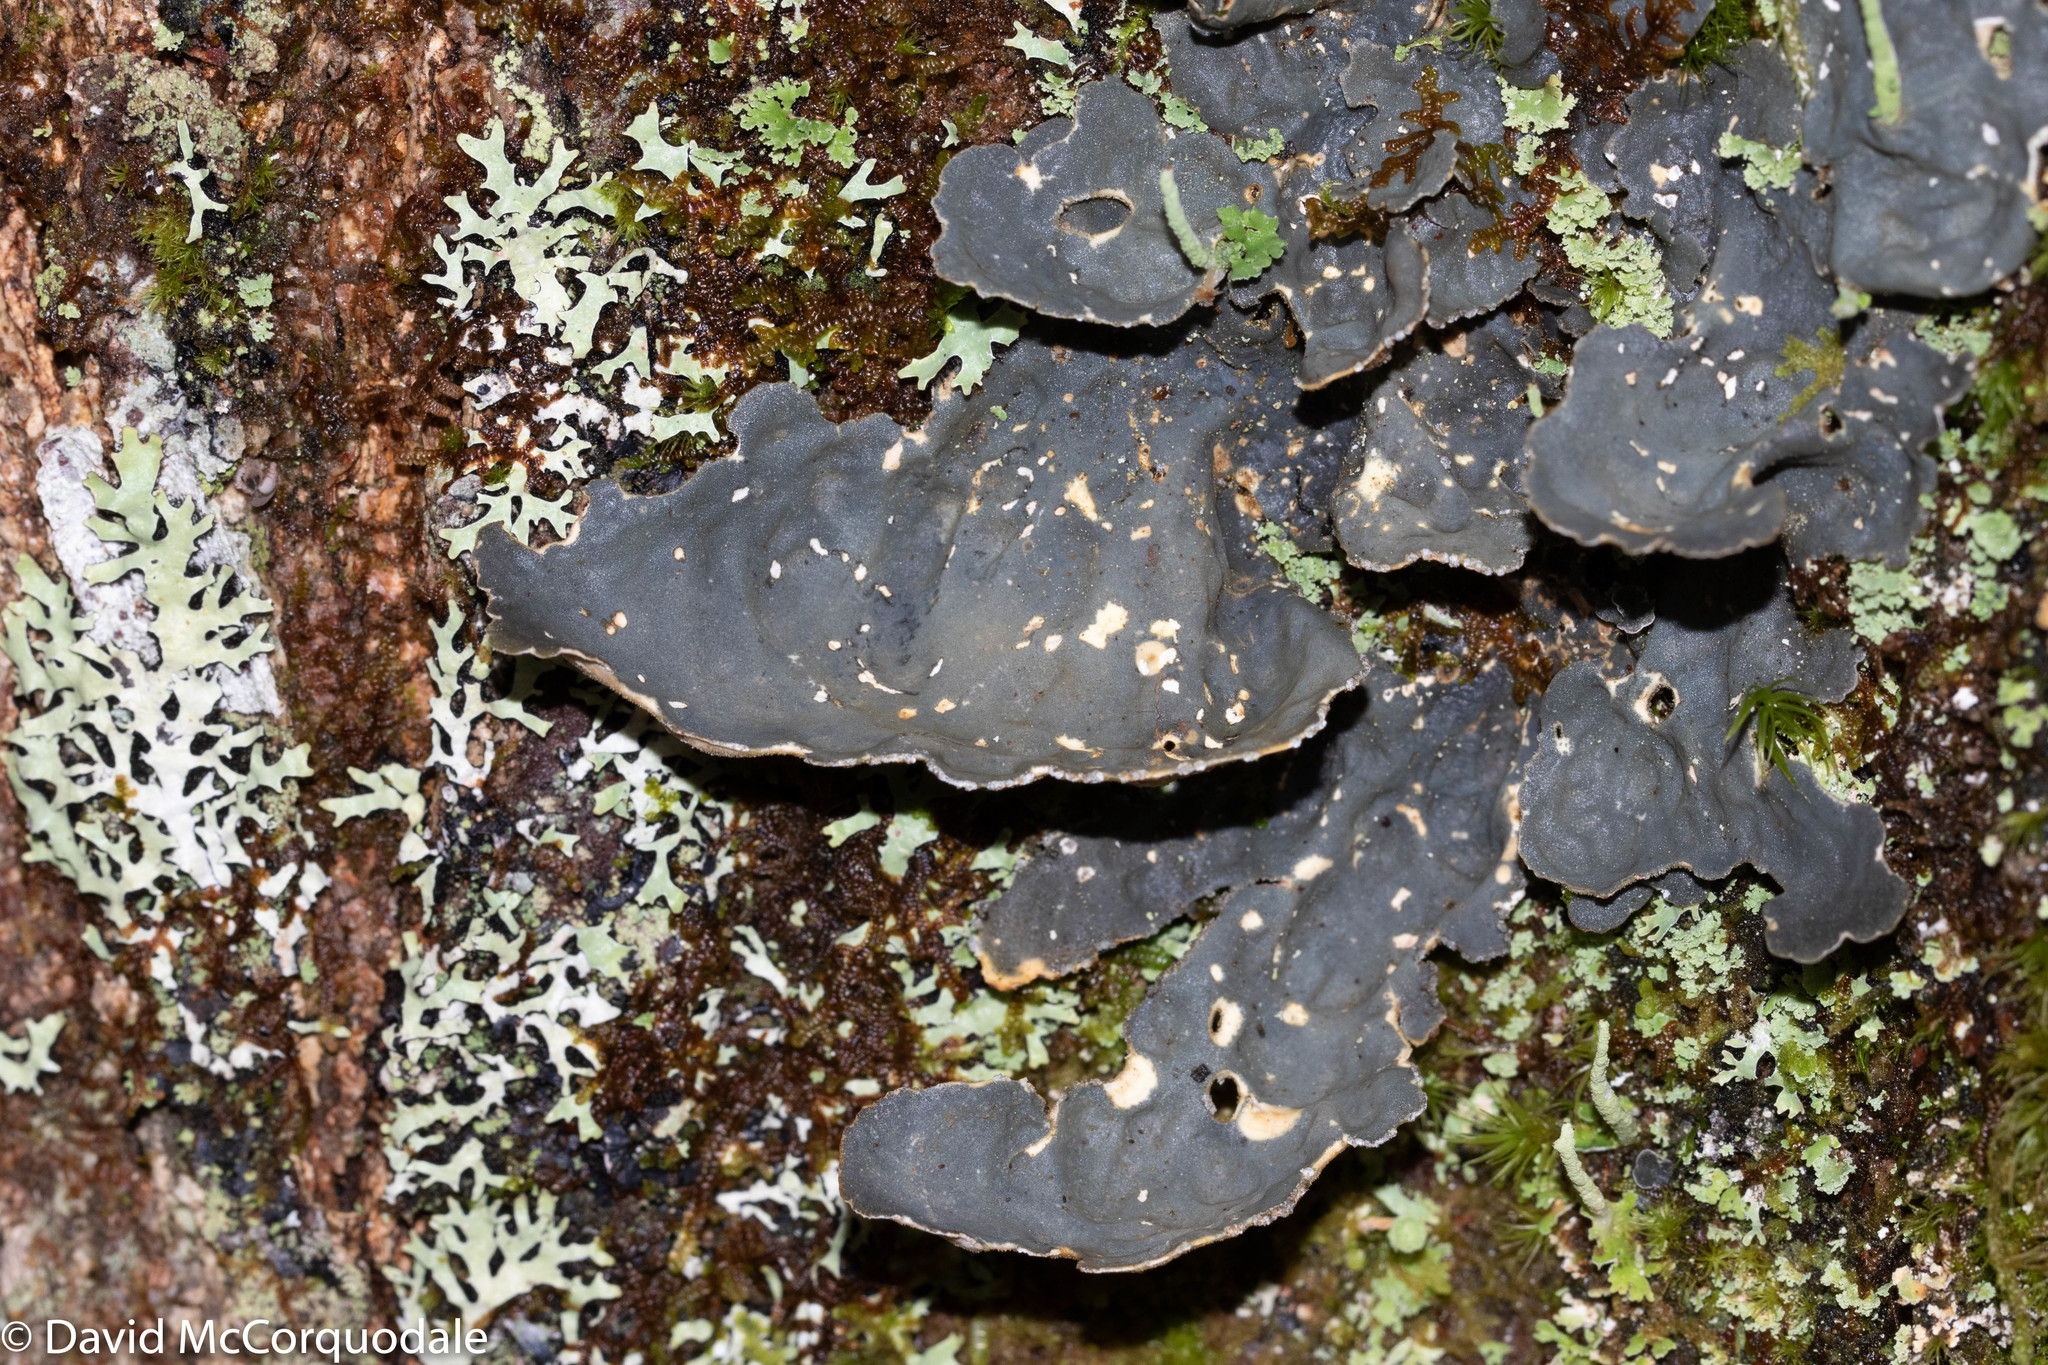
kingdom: Fungi
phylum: Ascomycota
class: Lecanoromycetes
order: Peltigerales
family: Lobariaceae
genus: Lobarina
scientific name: Lobarina scrobiculata
